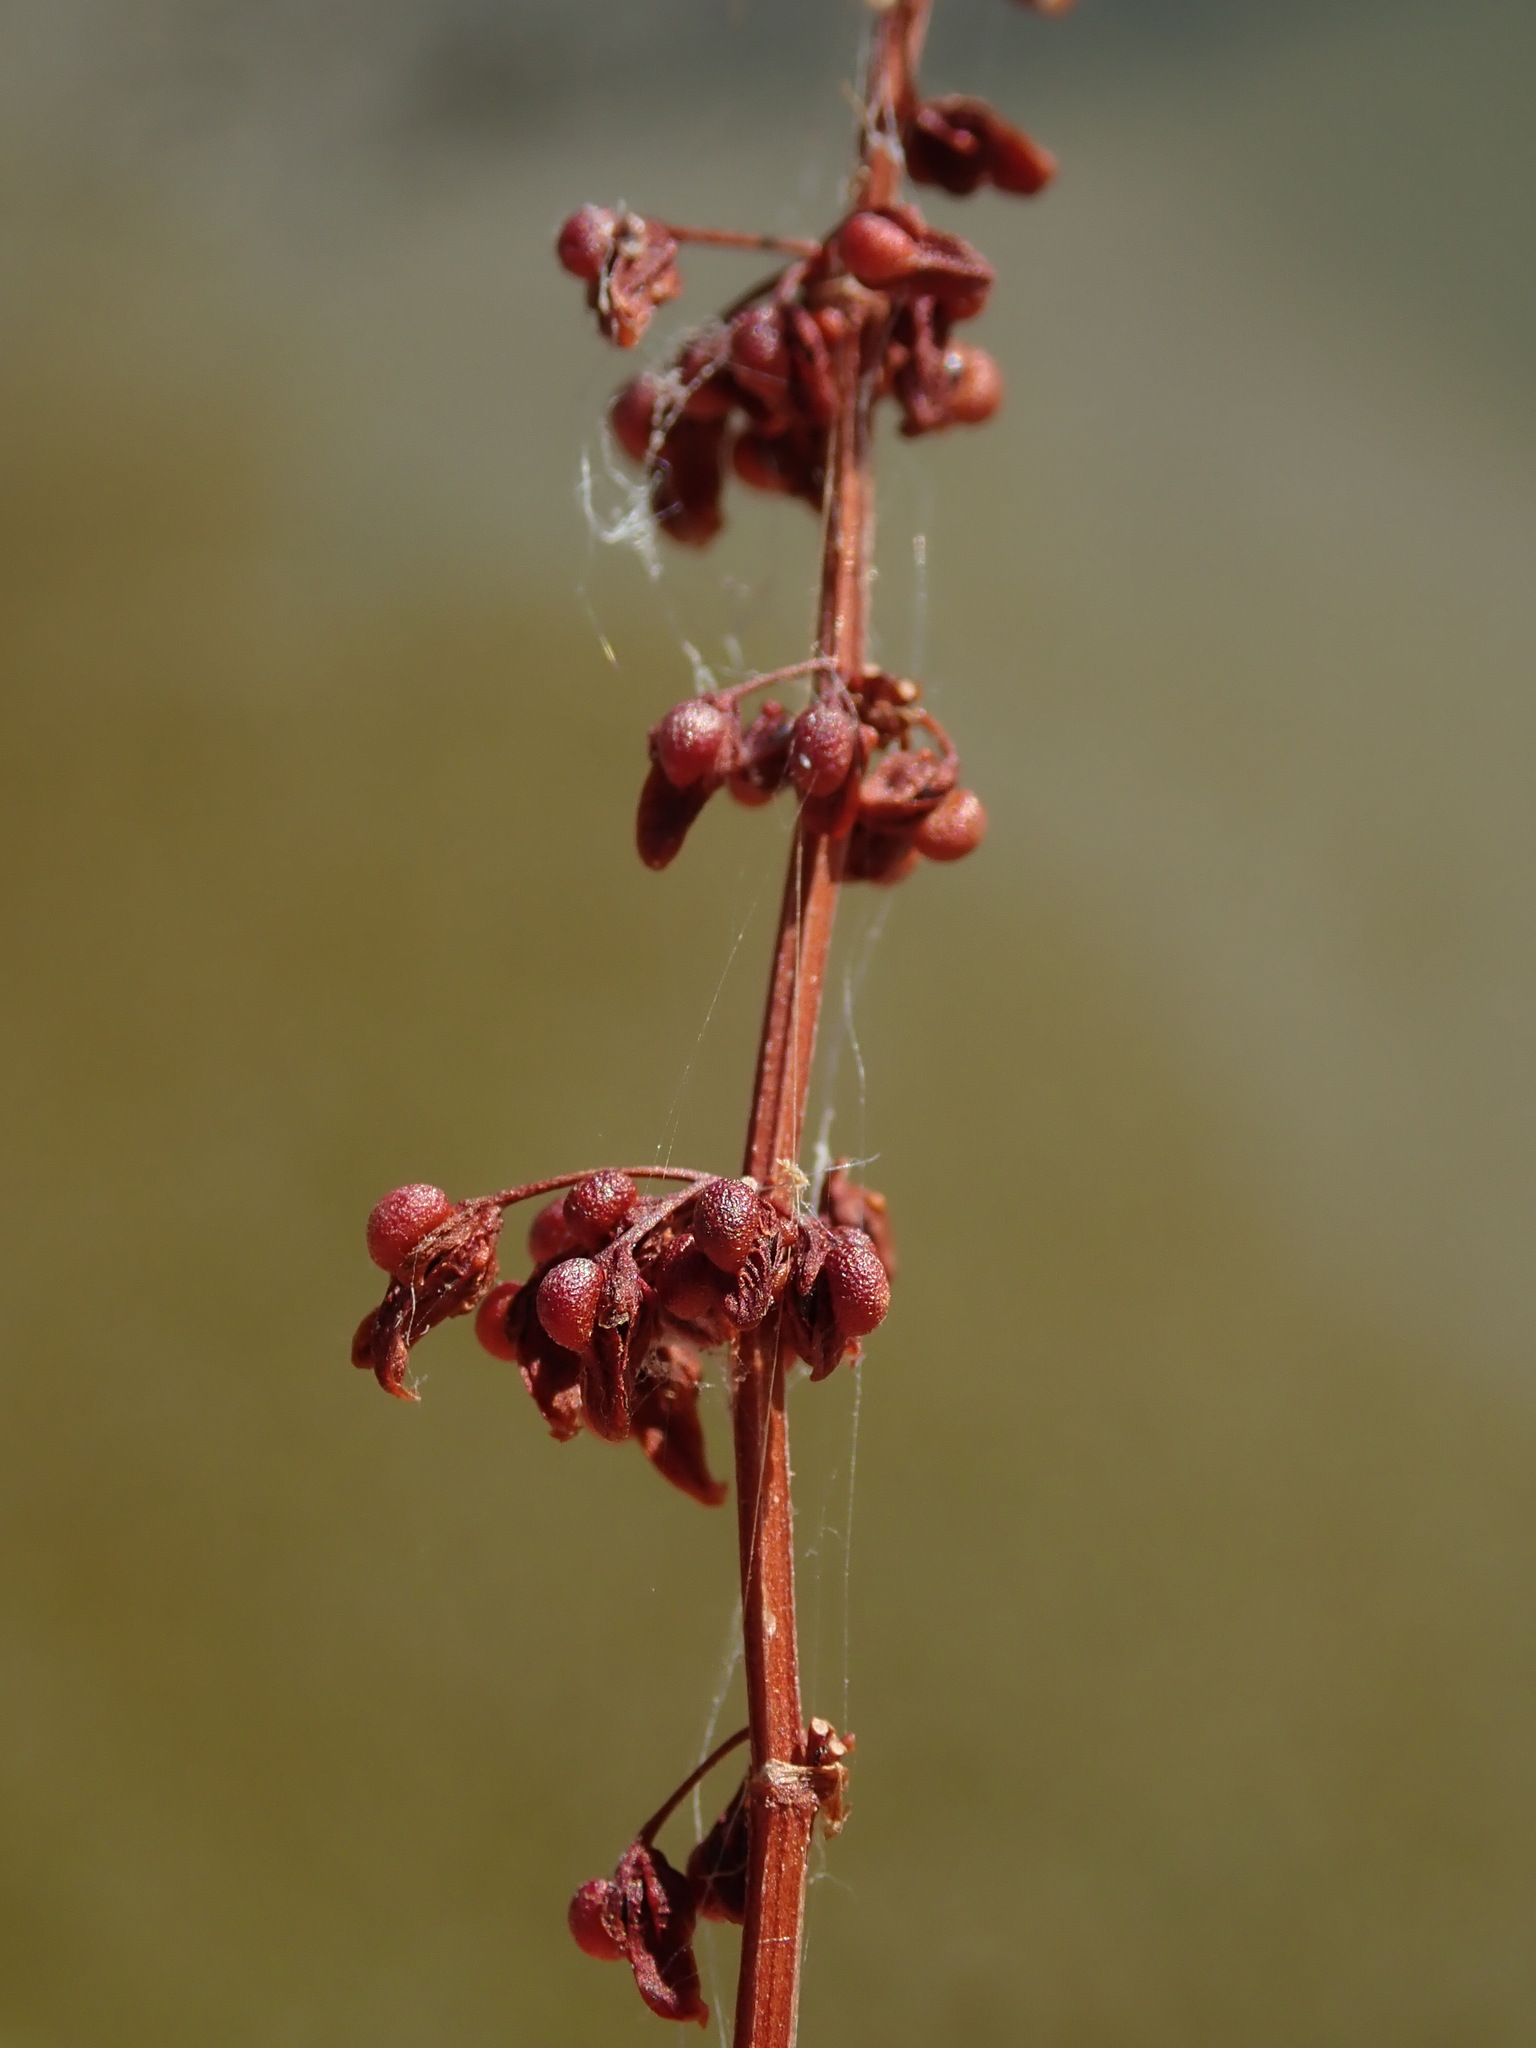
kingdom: Plantae
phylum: Tracheophyta
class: Magnoliopsida
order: Caryophyllales
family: Polygonaceae
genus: Rumex
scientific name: Rumex sanguineus
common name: Wood dock
